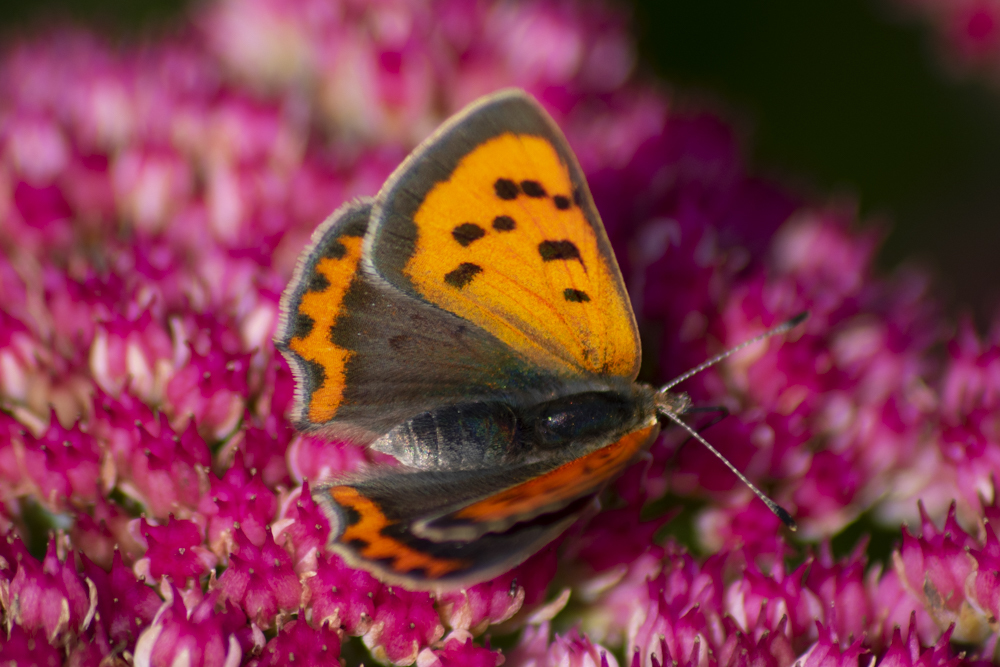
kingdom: Animalia
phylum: Arthropoda
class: Insecta
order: Lepidoptera
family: Lycaenidae
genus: Lycaena
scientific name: Lycaena phlaeas
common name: Small copper
